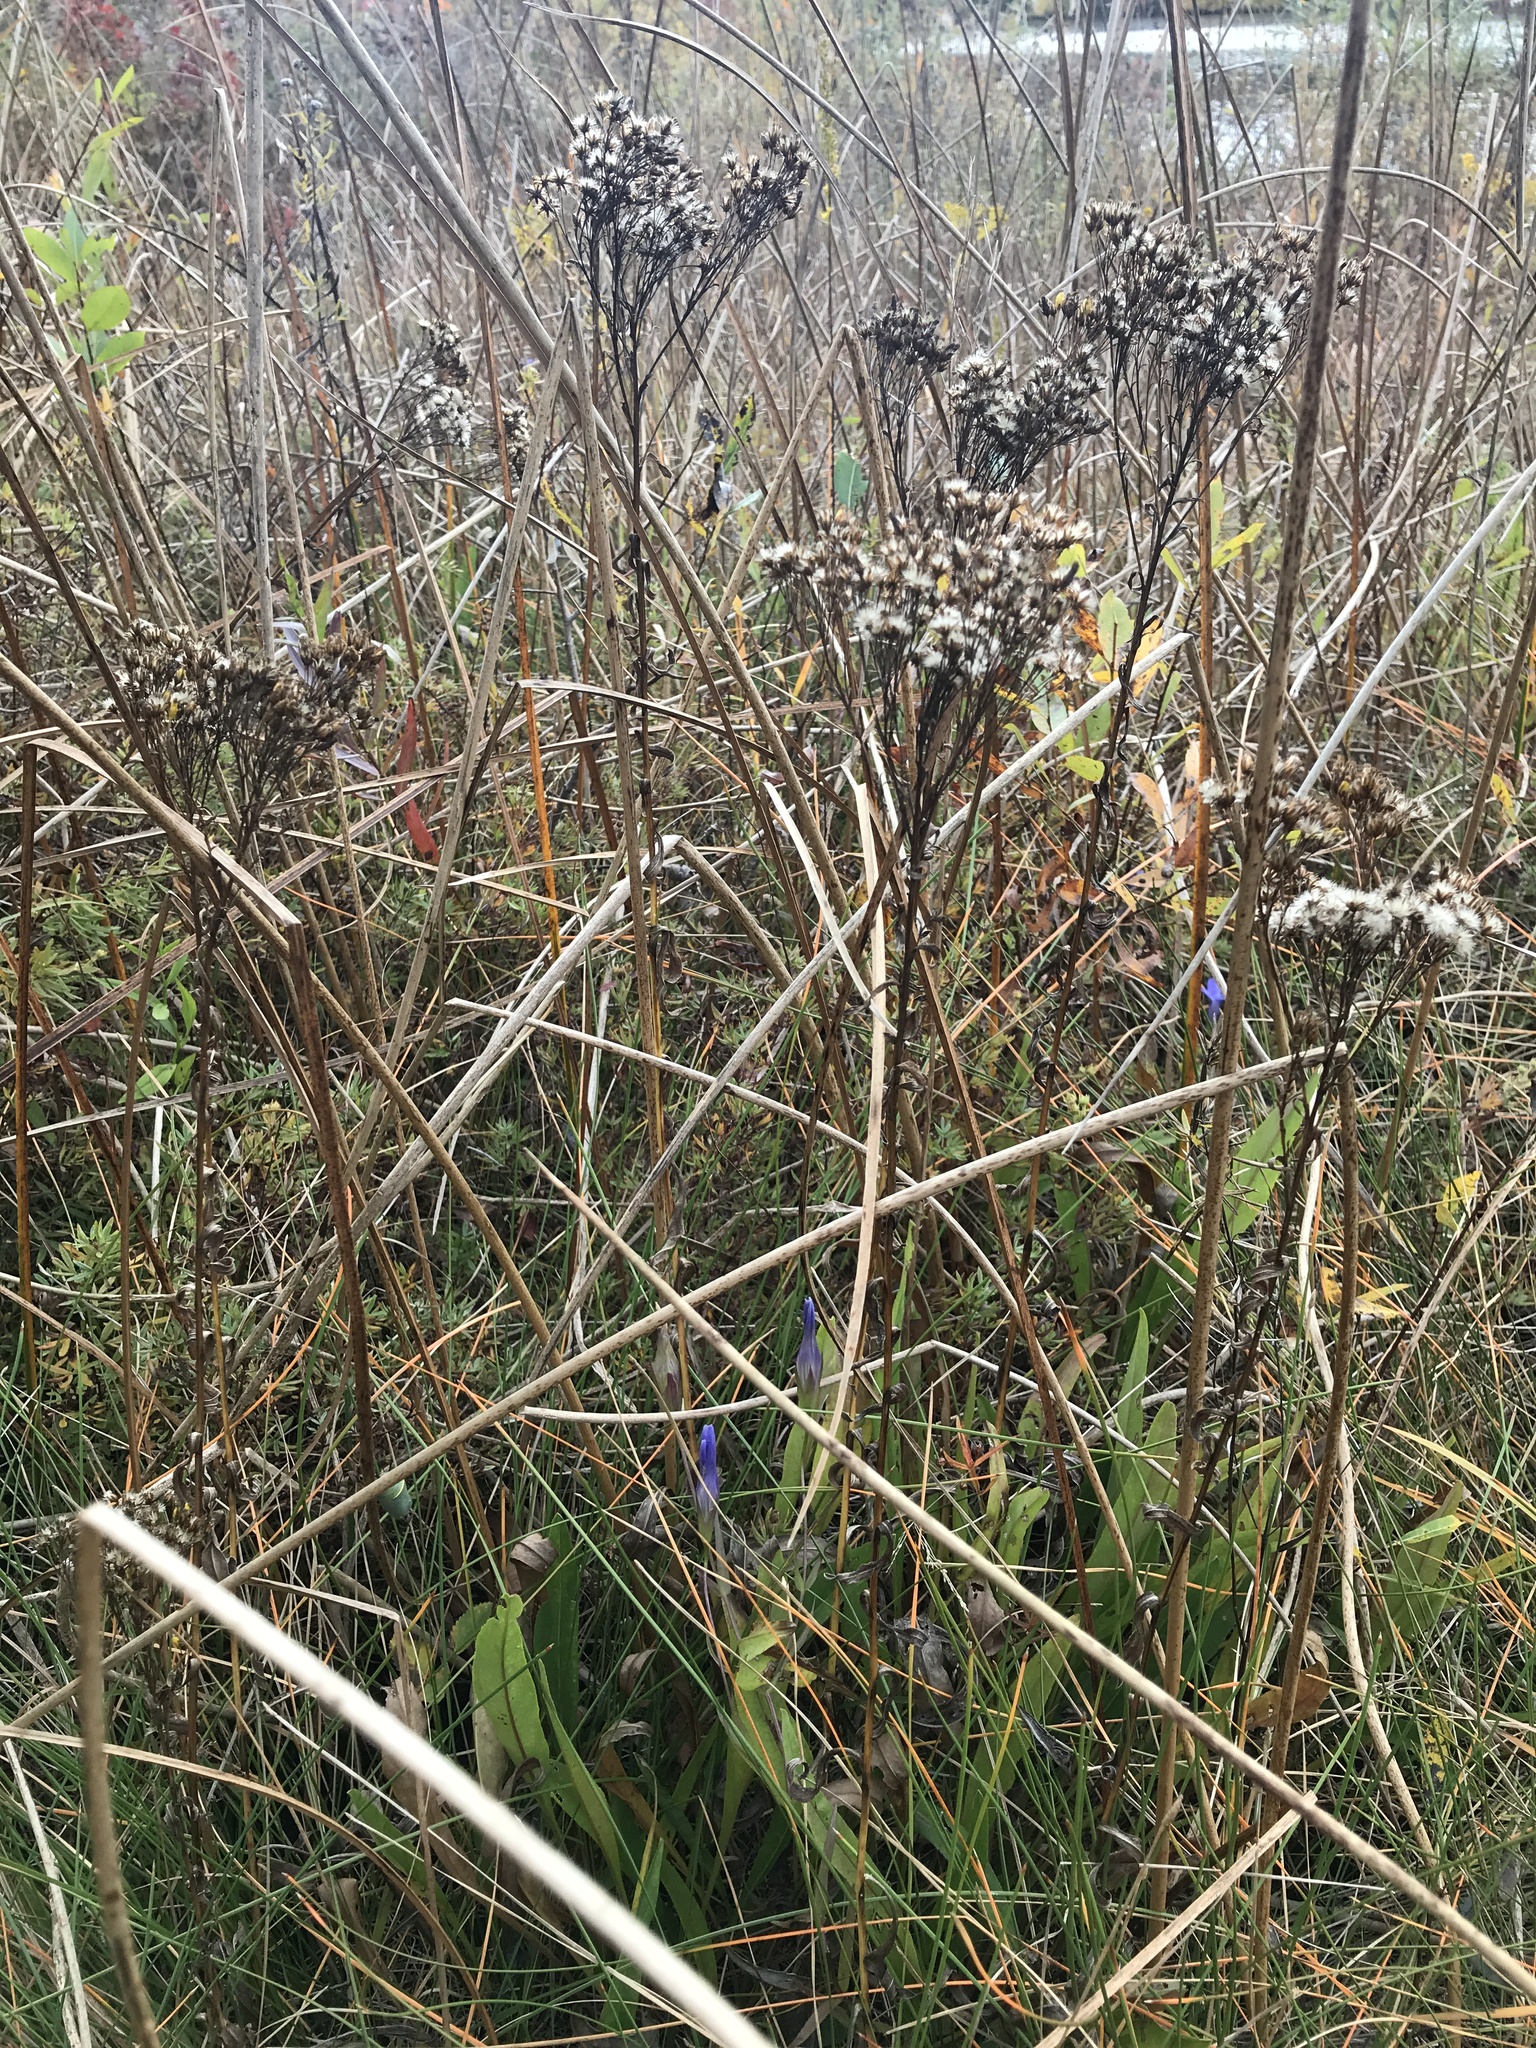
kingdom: Plantae
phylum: Tracheophyta
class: Magnoliopsida
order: Asterales
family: Asteraceae
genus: Solidago
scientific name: Solidago ohioensis
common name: Ohio goldenrod
